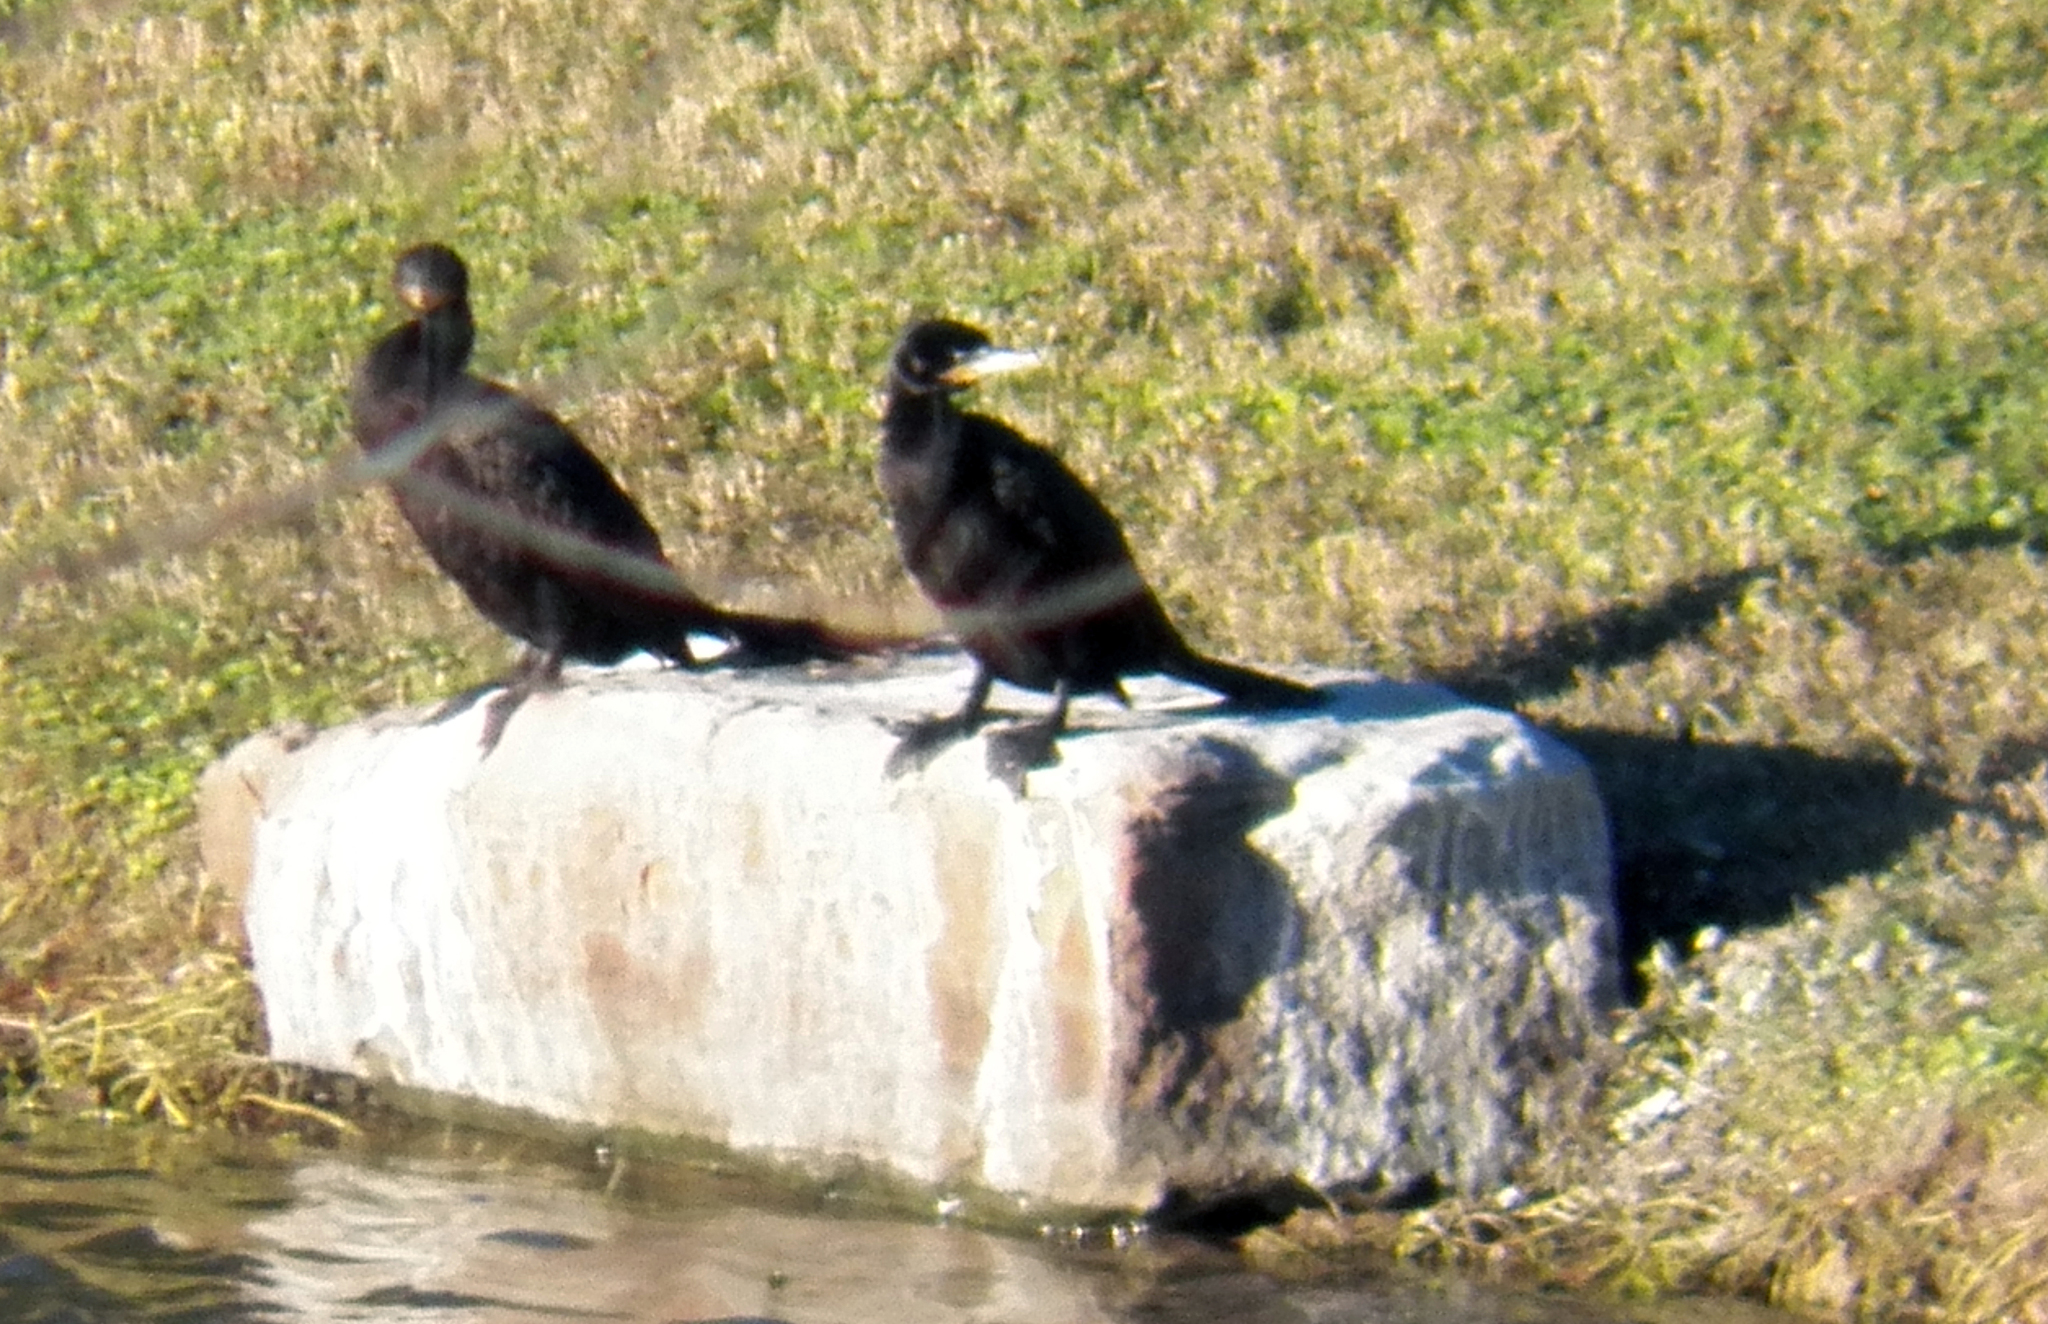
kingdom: Animalia
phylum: Chordata
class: Aves
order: Suliformes
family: Phalacrocoracidae
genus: Phalacrocorax
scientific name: Phalacrocorax brasilianus
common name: Neotropic cormorant
